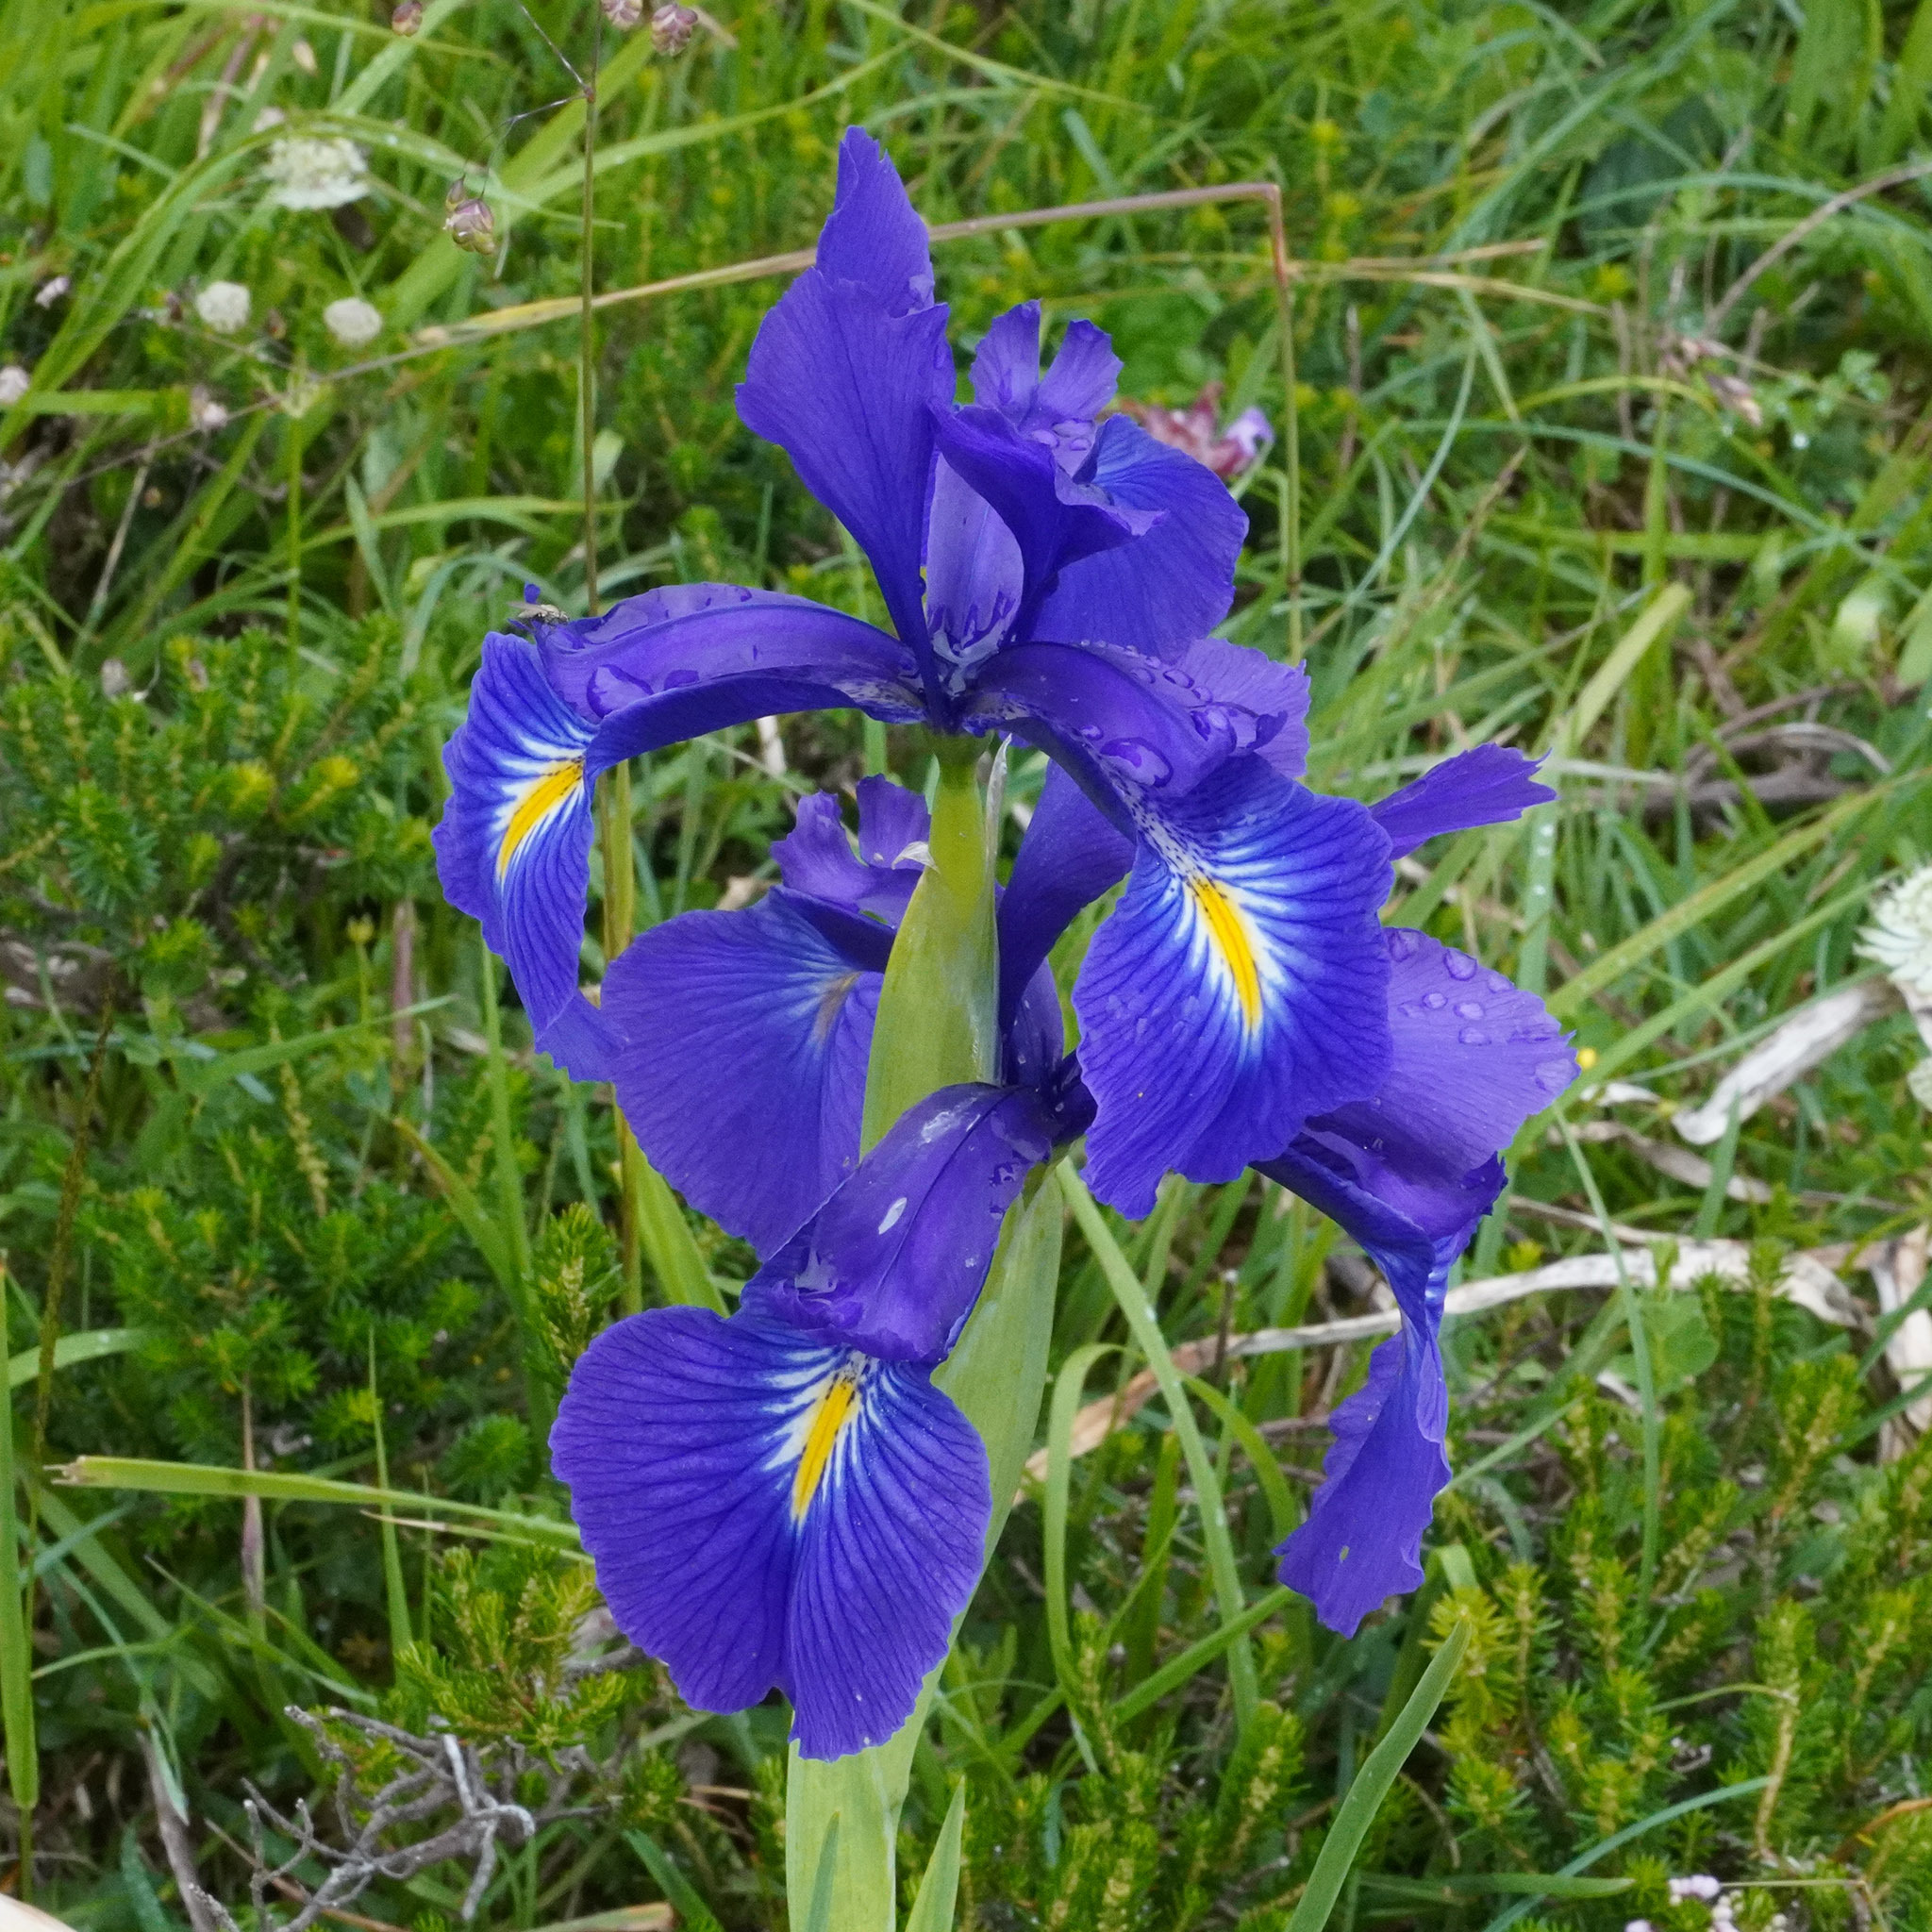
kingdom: Plantae
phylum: Tracheophyta
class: Liliopsida
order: Asparagales
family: Iridaceae
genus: Iris
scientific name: Iris
